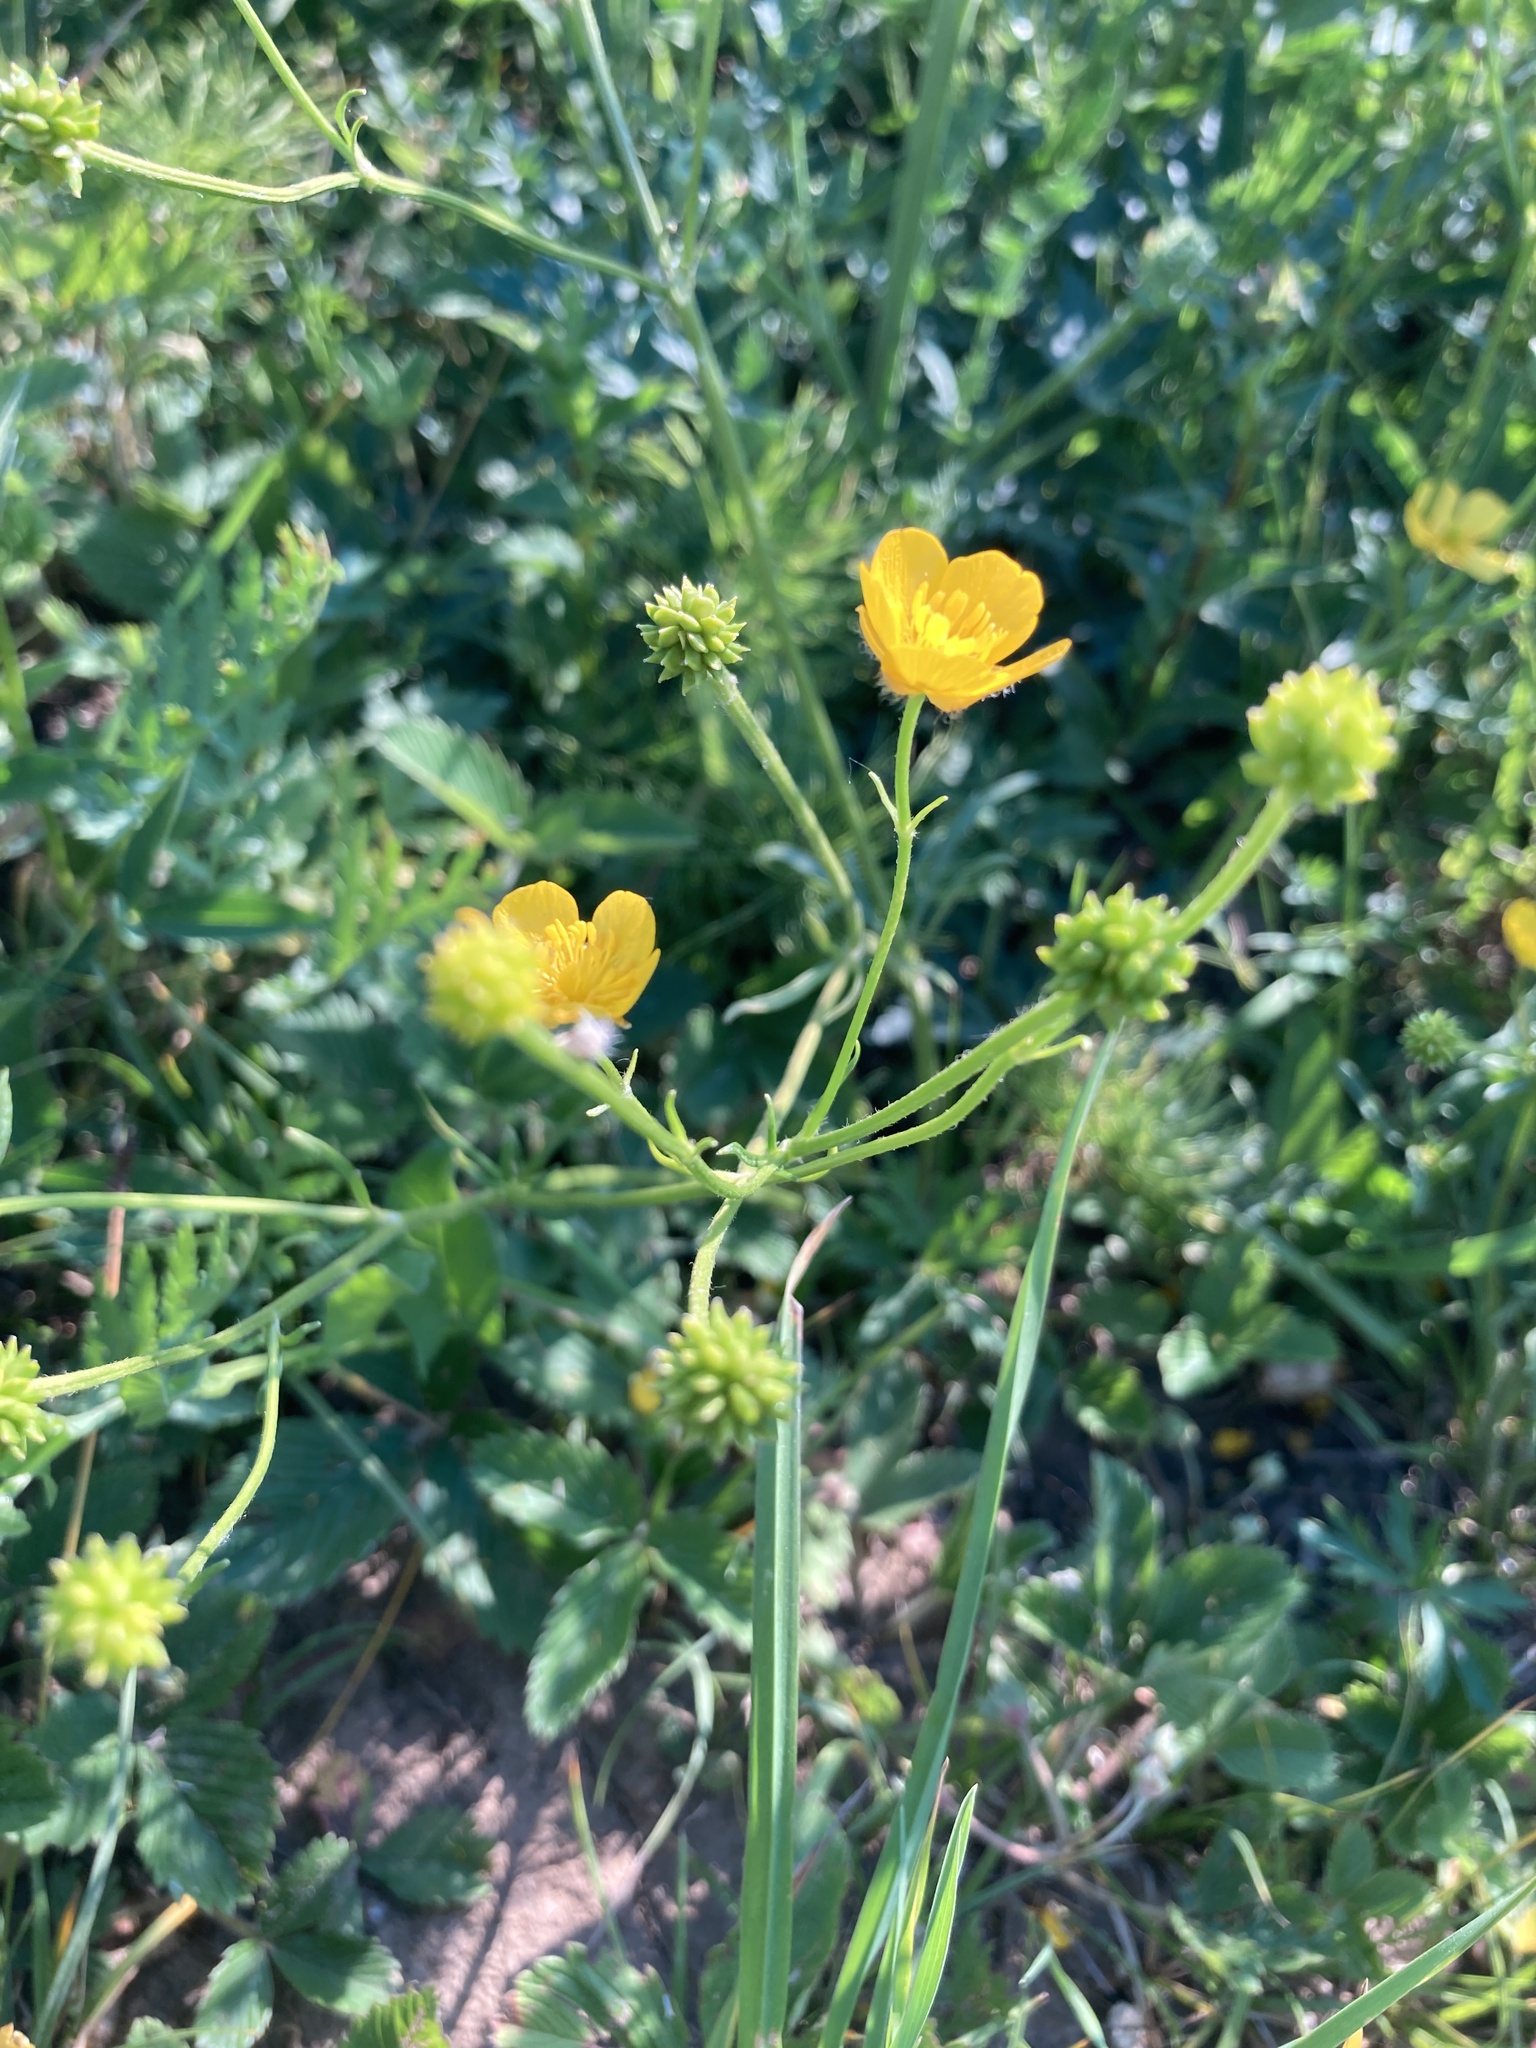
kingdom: Plantae
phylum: Tracheophyta
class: Magnoliopsida
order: Ranunculales
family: Ranunculaceae
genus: Ranunculus
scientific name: Ranunculus polyanthemos
